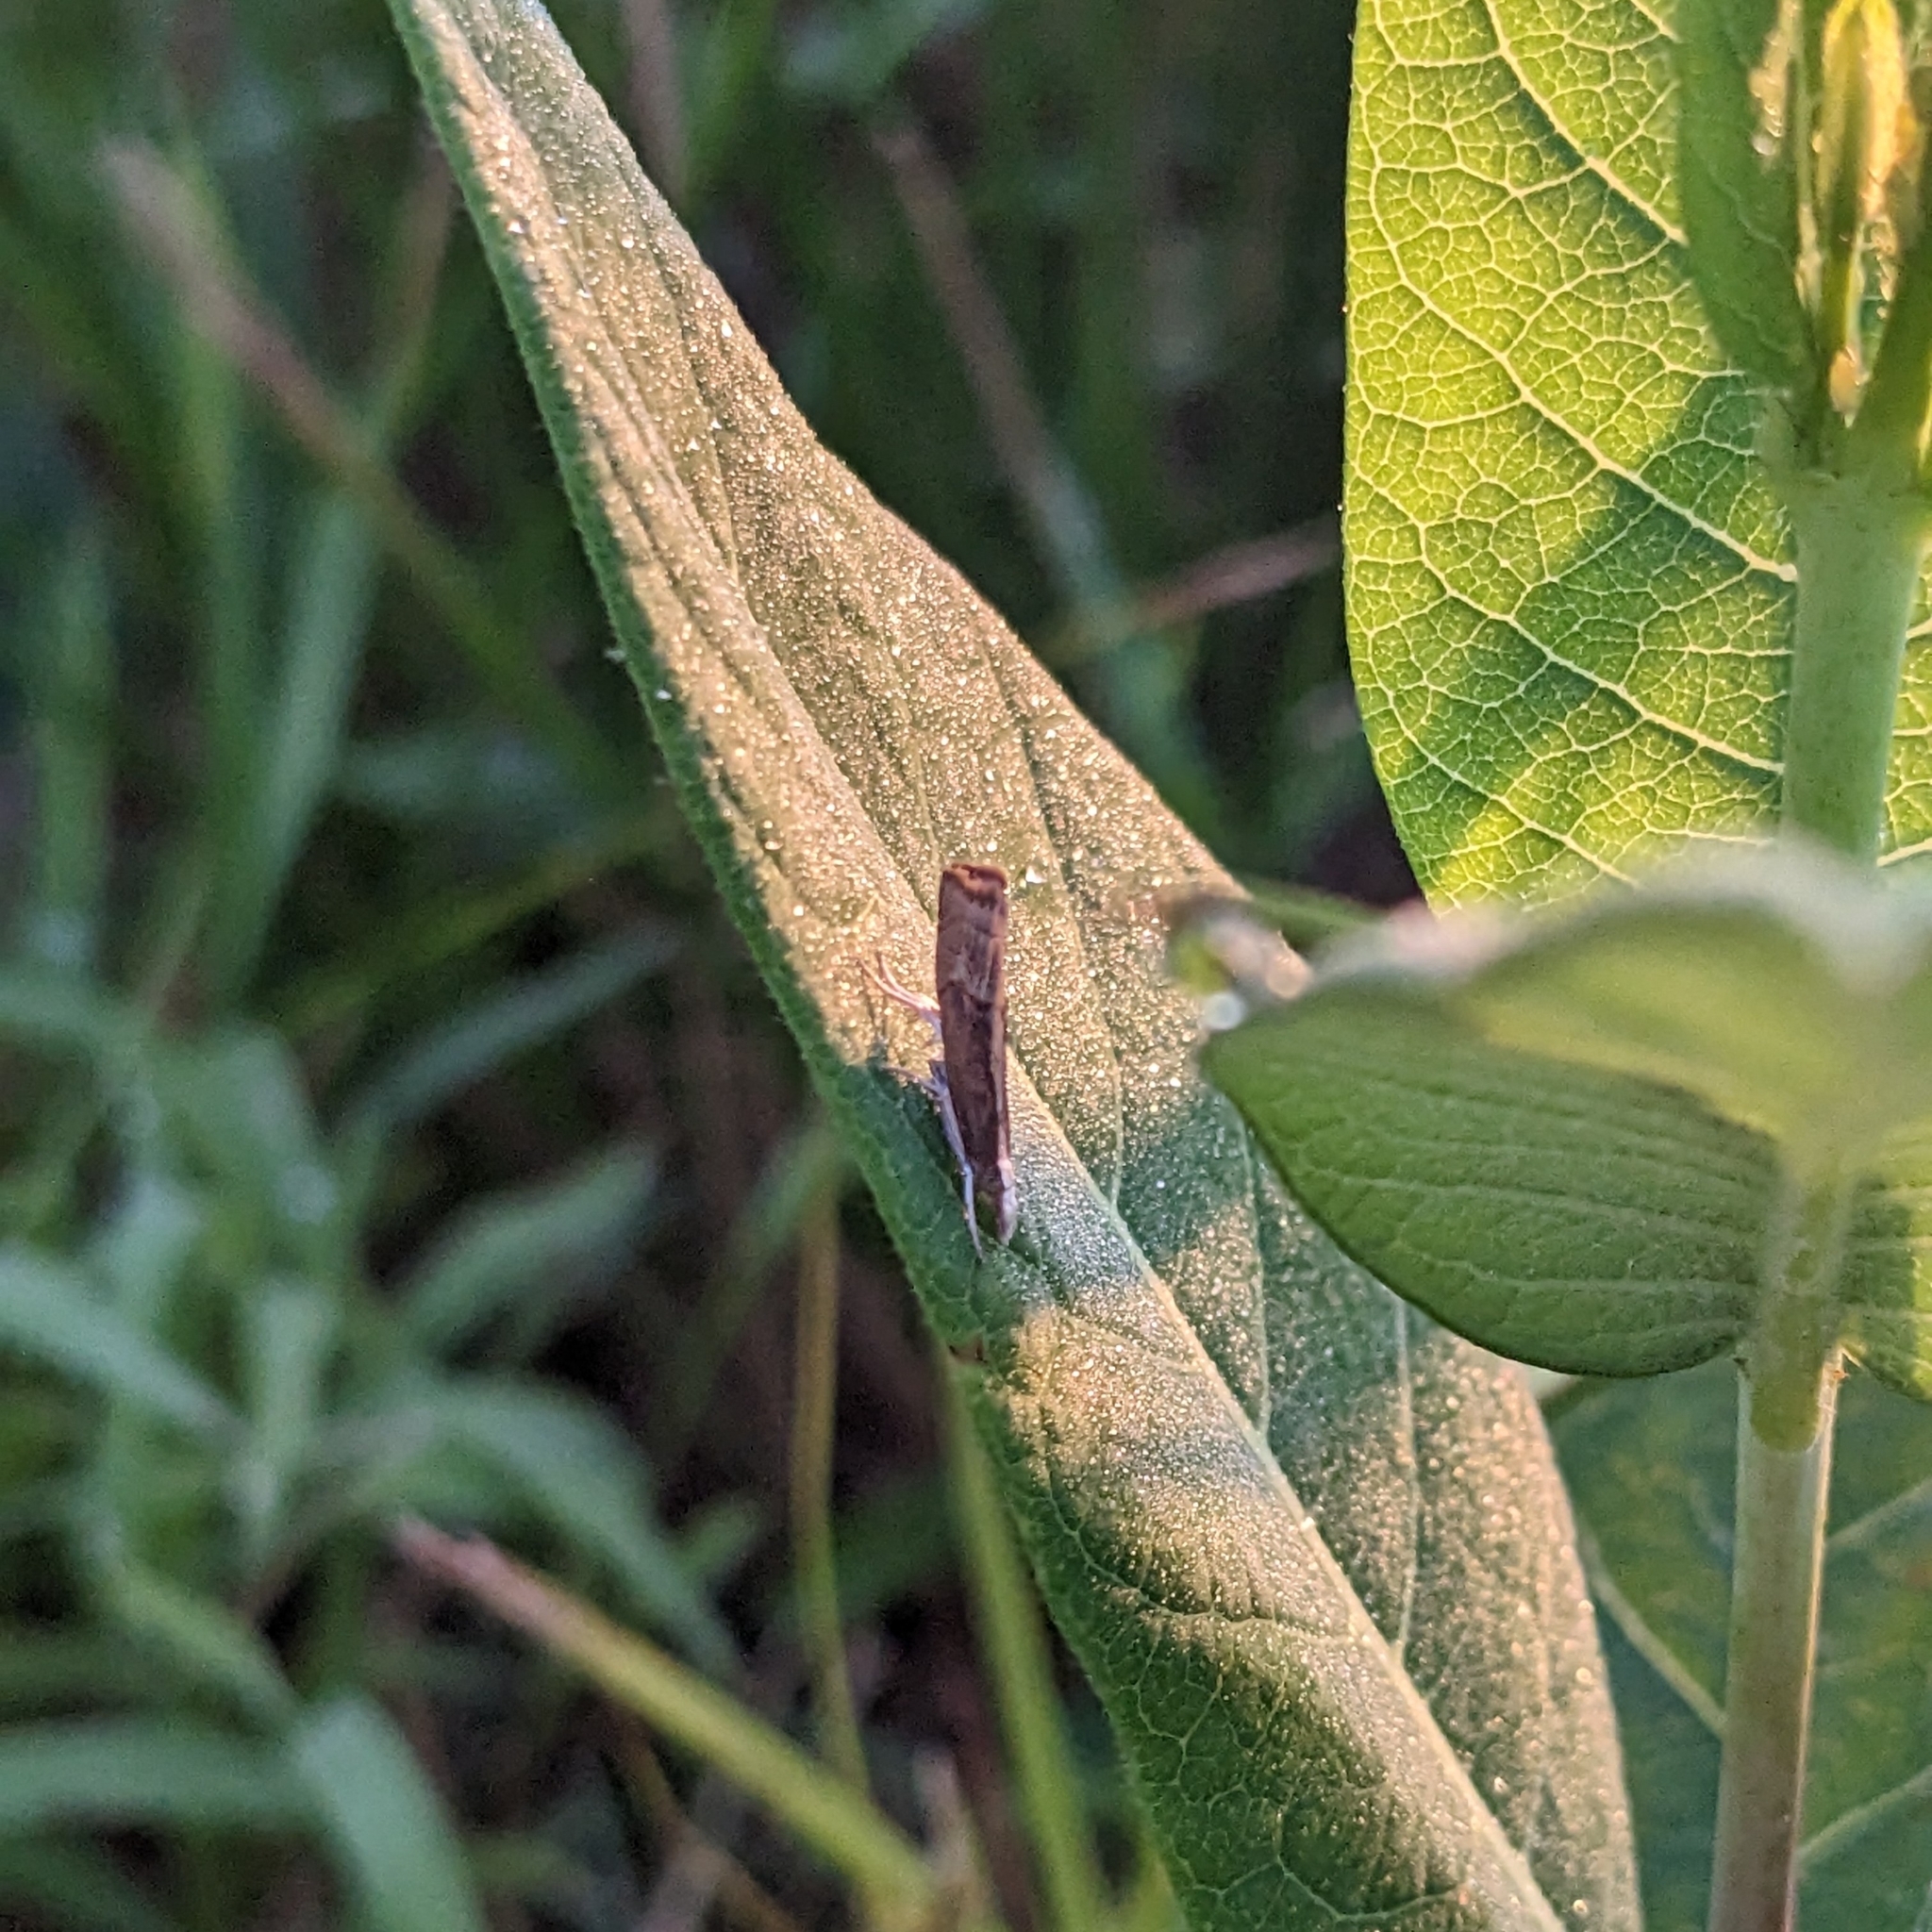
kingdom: Animalia
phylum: Arthropoda
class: Insecta
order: Lepidoptera
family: Crambidae
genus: Parapediasia
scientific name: Parapediasia teterellus
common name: Bluegrass webworm moth
